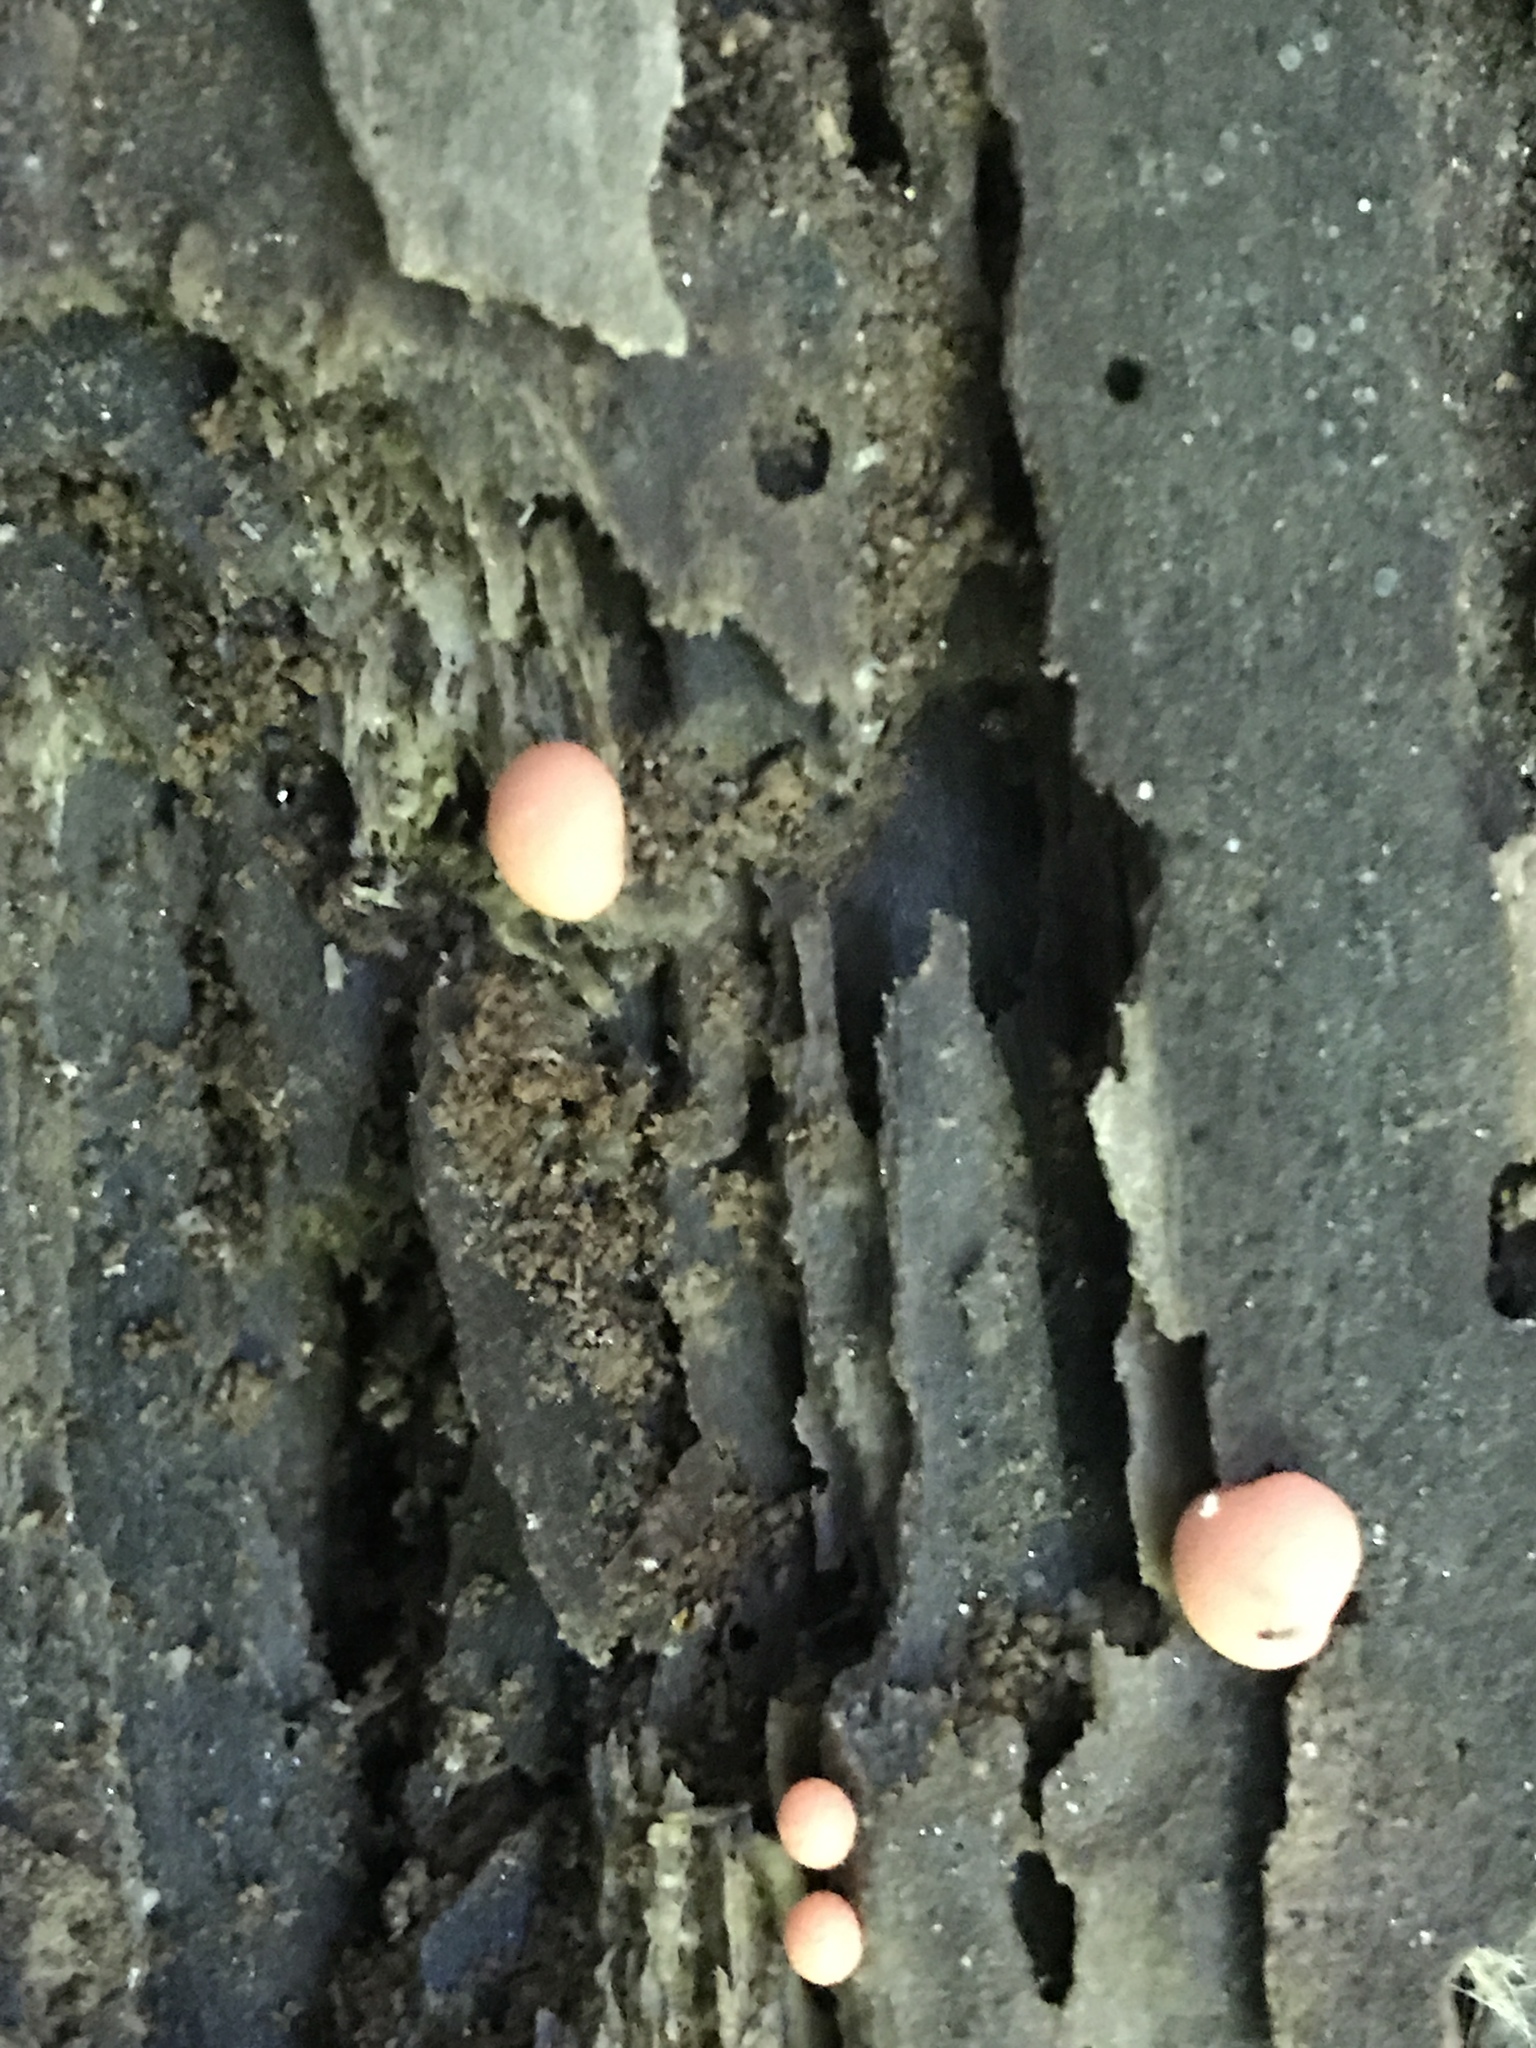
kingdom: Protozoa
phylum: Mycetozoa
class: Myxomycetes
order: Cribrariales
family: Tubiferaceae
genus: Lycogala
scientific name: Lycogala epidendrum
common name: Wolf's milk
